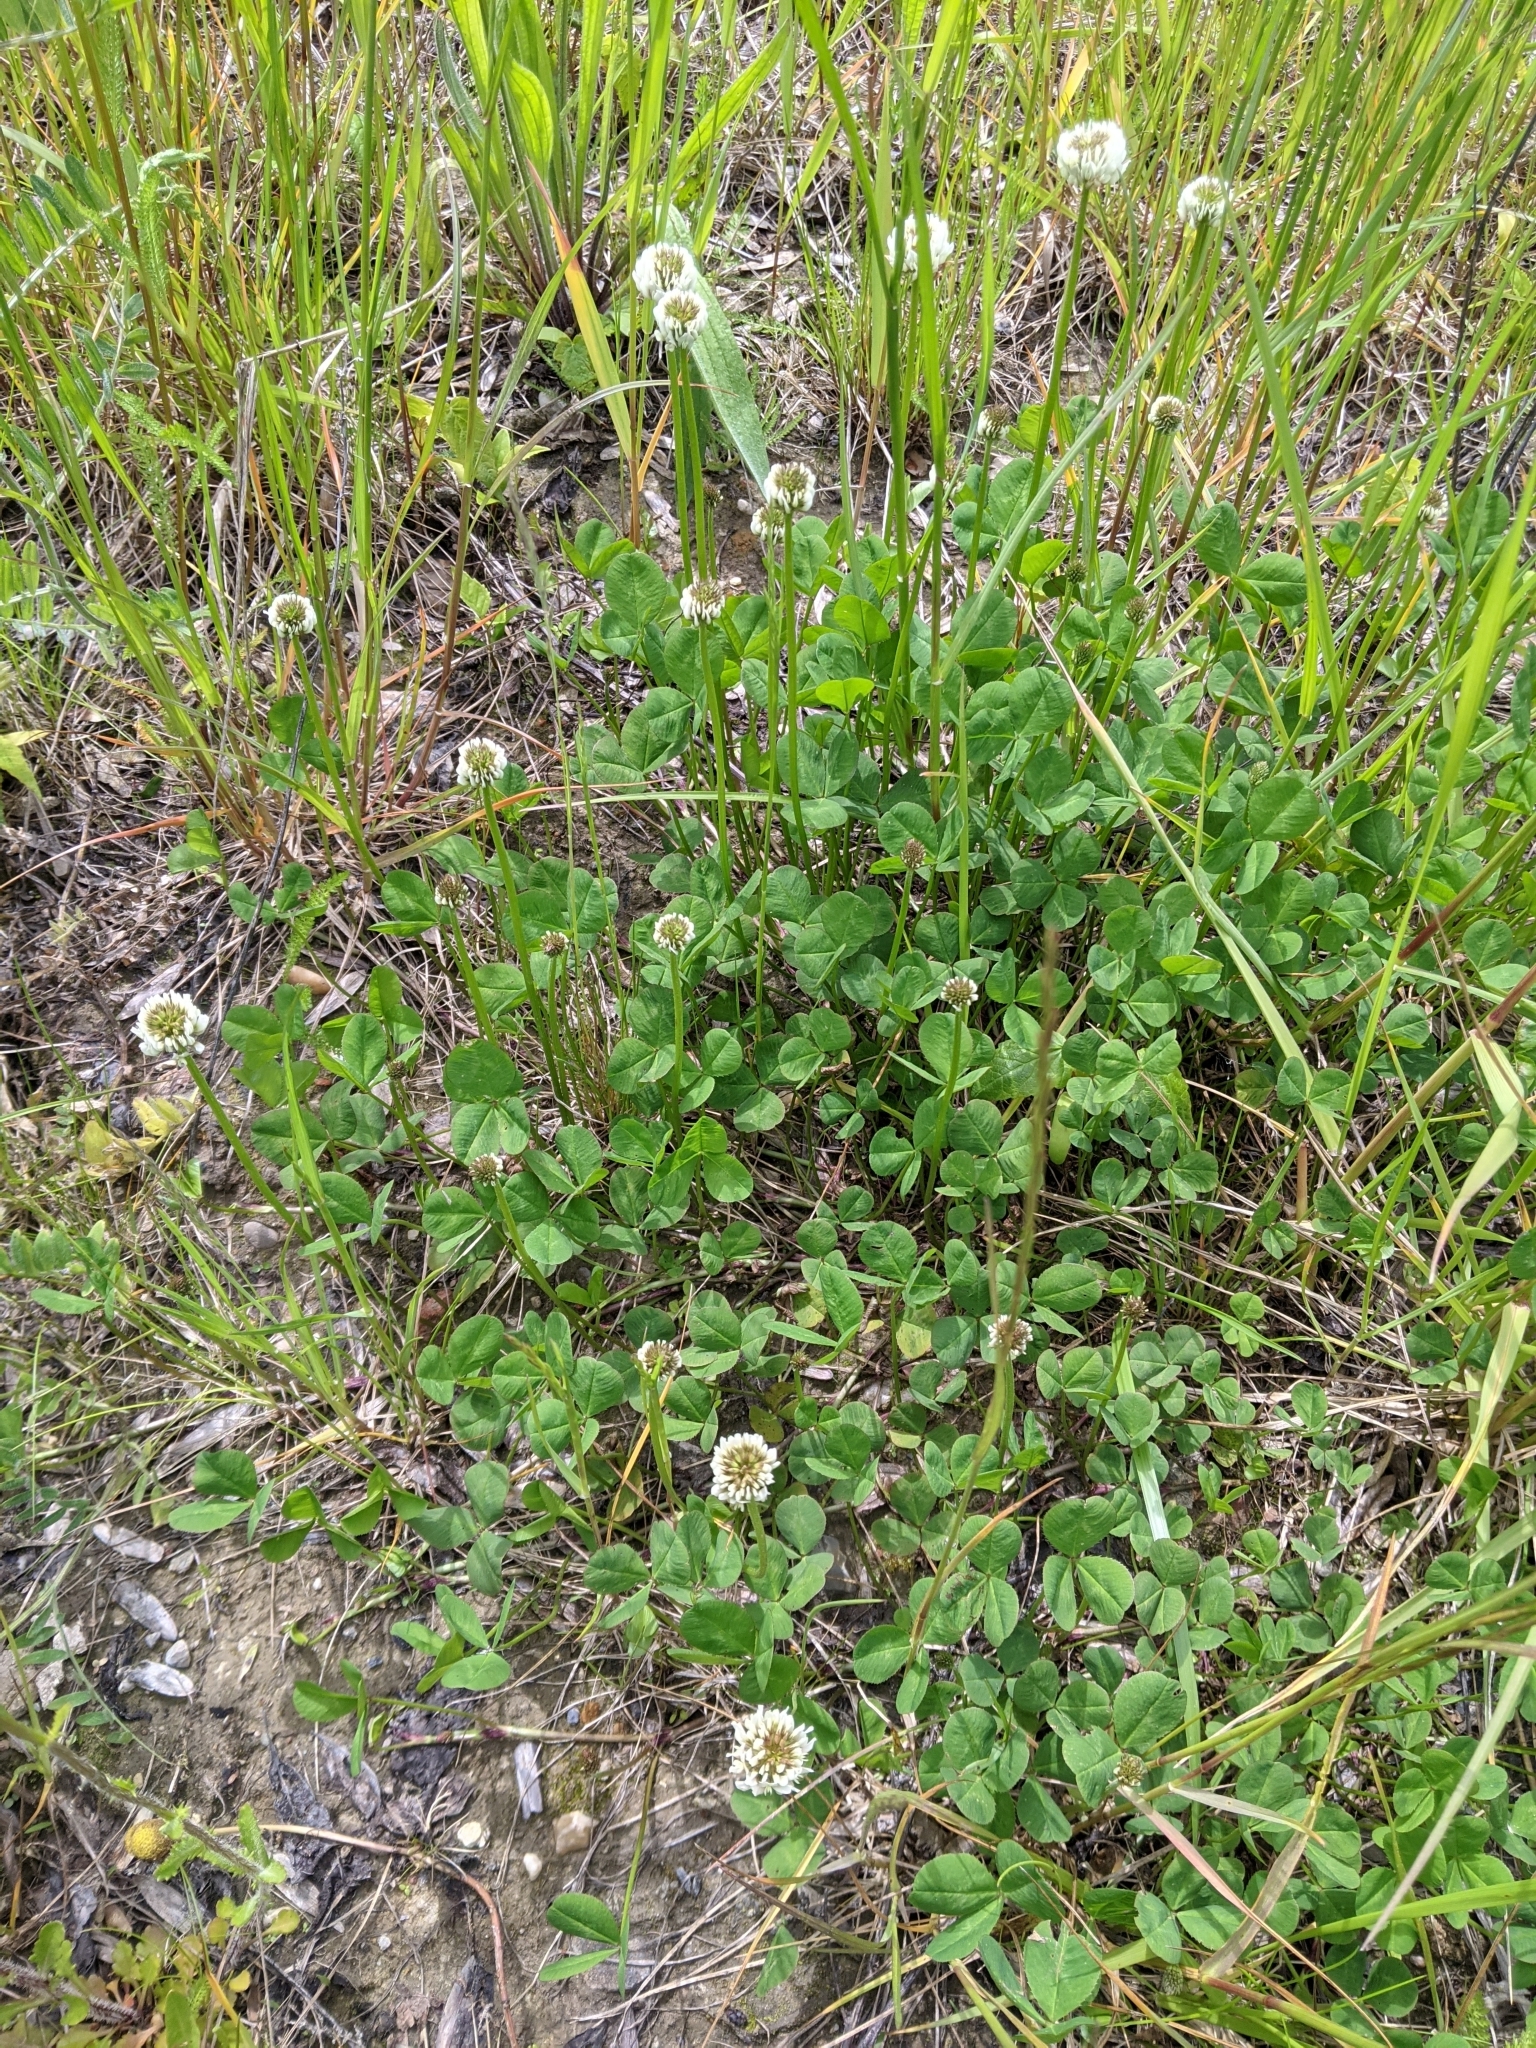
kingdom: Plantae
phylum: Tracheophyta
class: Magnoliopsida
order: Fabales
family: Fabaceae
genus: Trifolium
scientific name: Trifolium repens
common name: White clover
